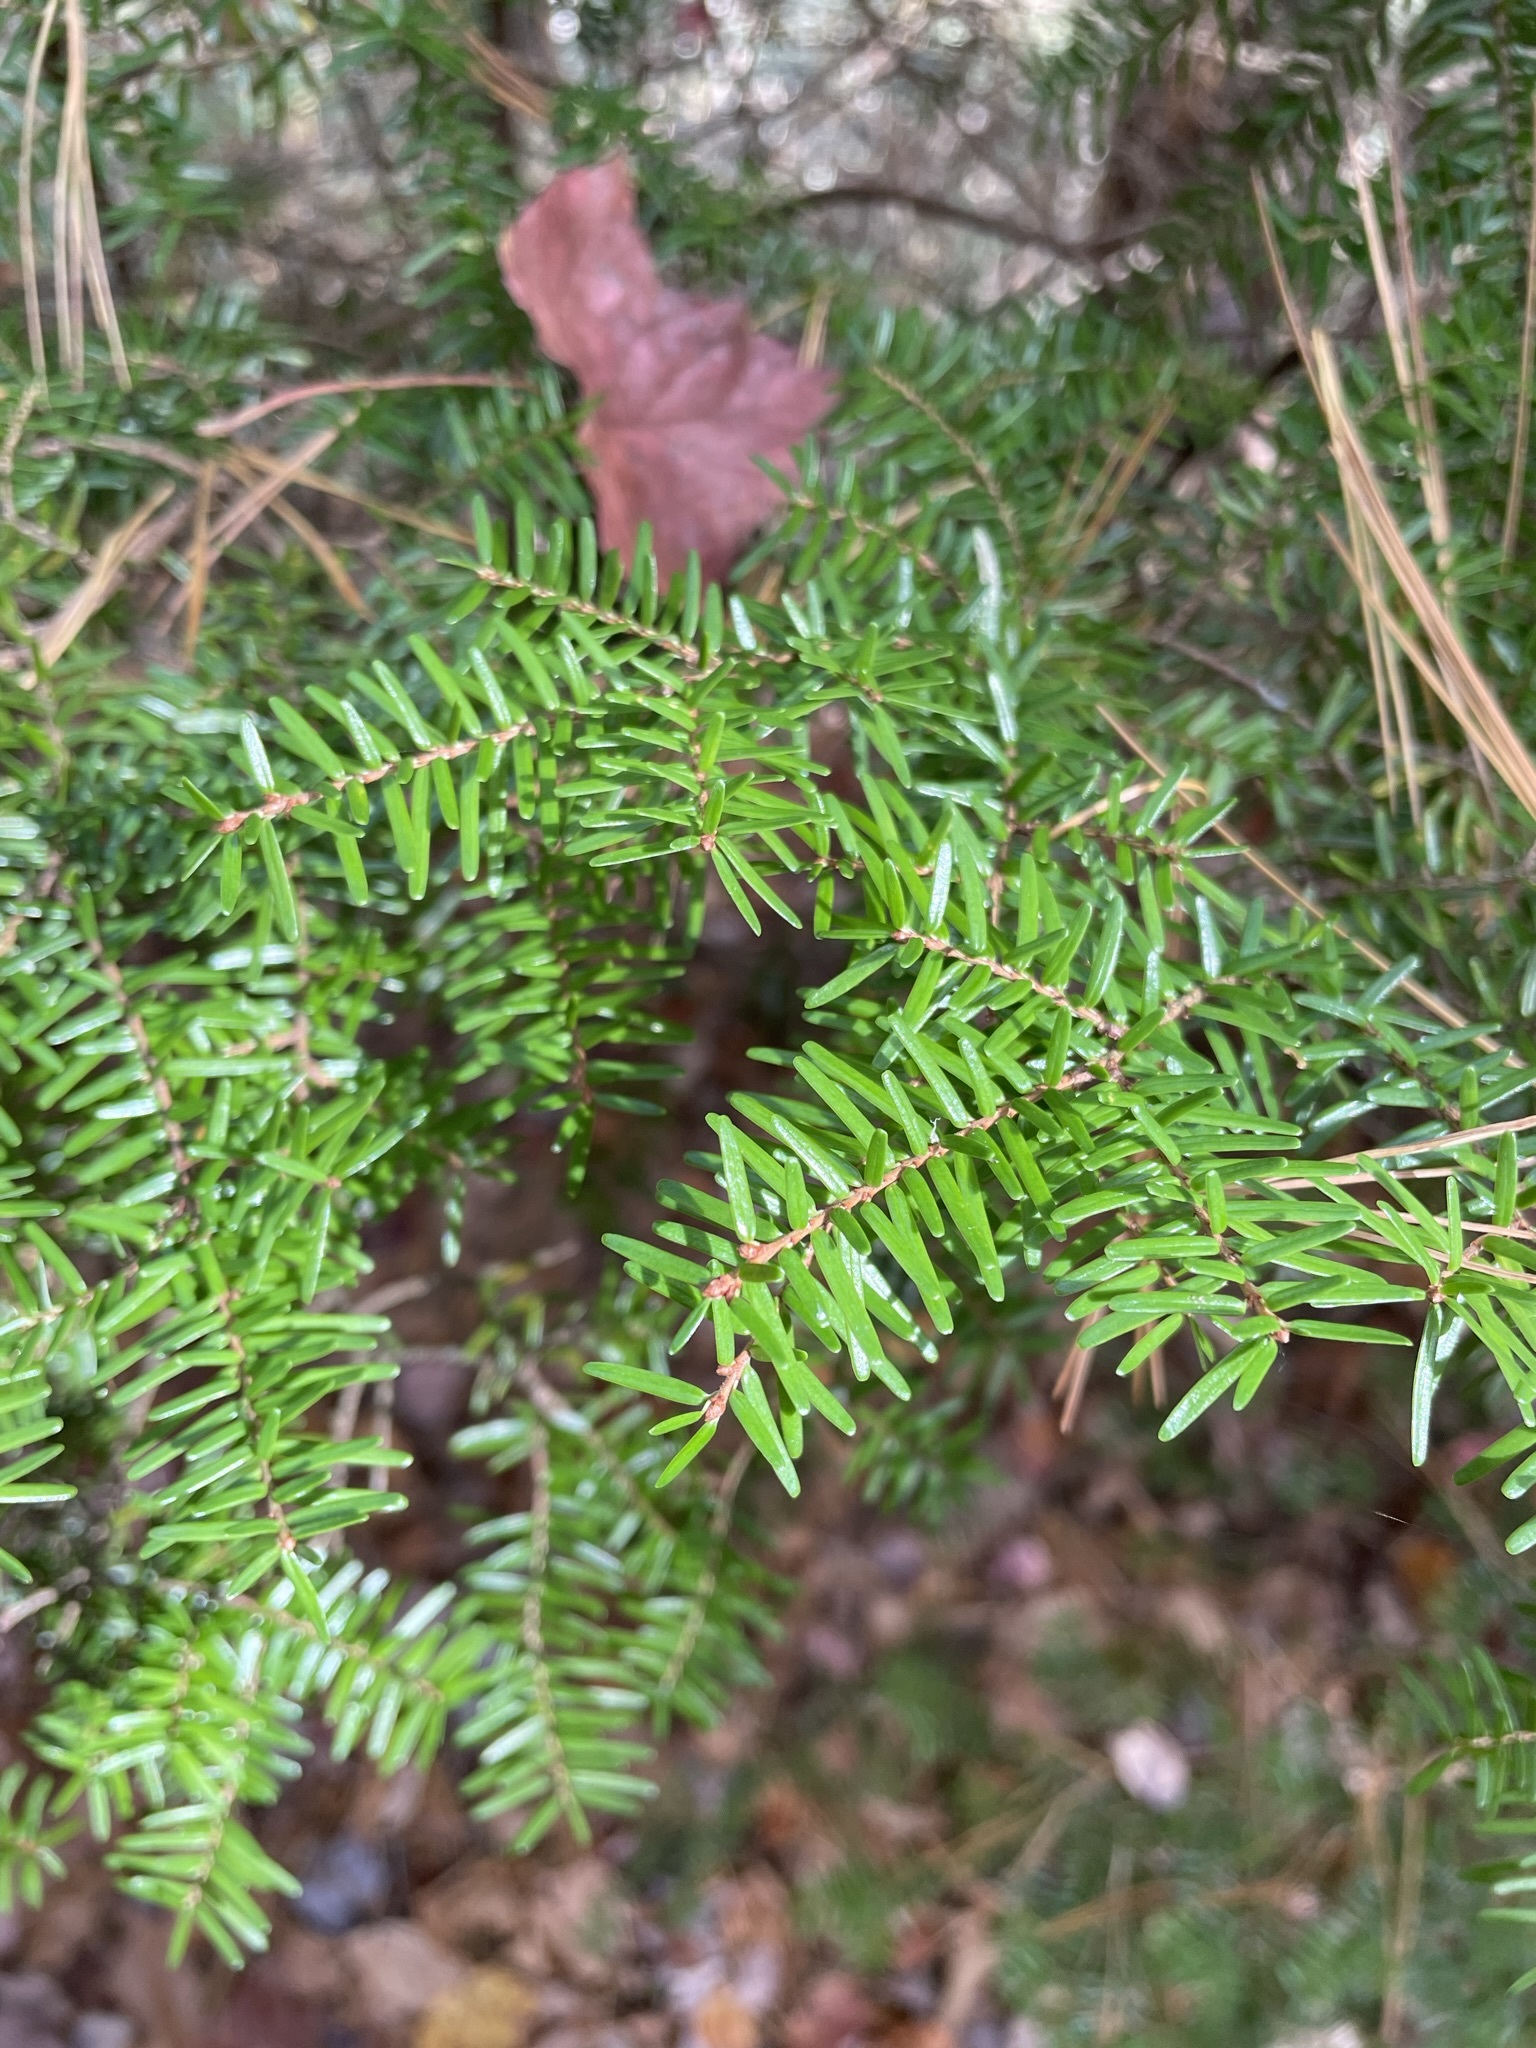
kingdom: Plantae
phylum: Tracheophyta
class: Pinopsida
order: Pinales
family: Pinaceae
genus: Tsuga
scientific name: Tsuga caroliniana
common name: Carolina hemlock
